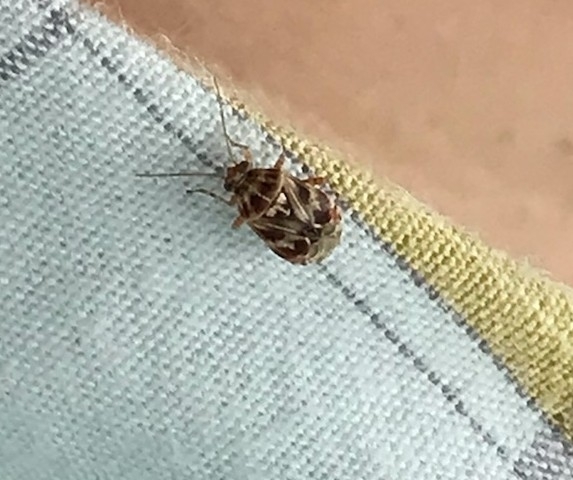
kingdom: Animalia
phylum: Arthropoda
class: Insecta
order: Hemiptera
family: Miridae
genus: Tropidosteptes
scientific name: Tropidosteptes quercicola
